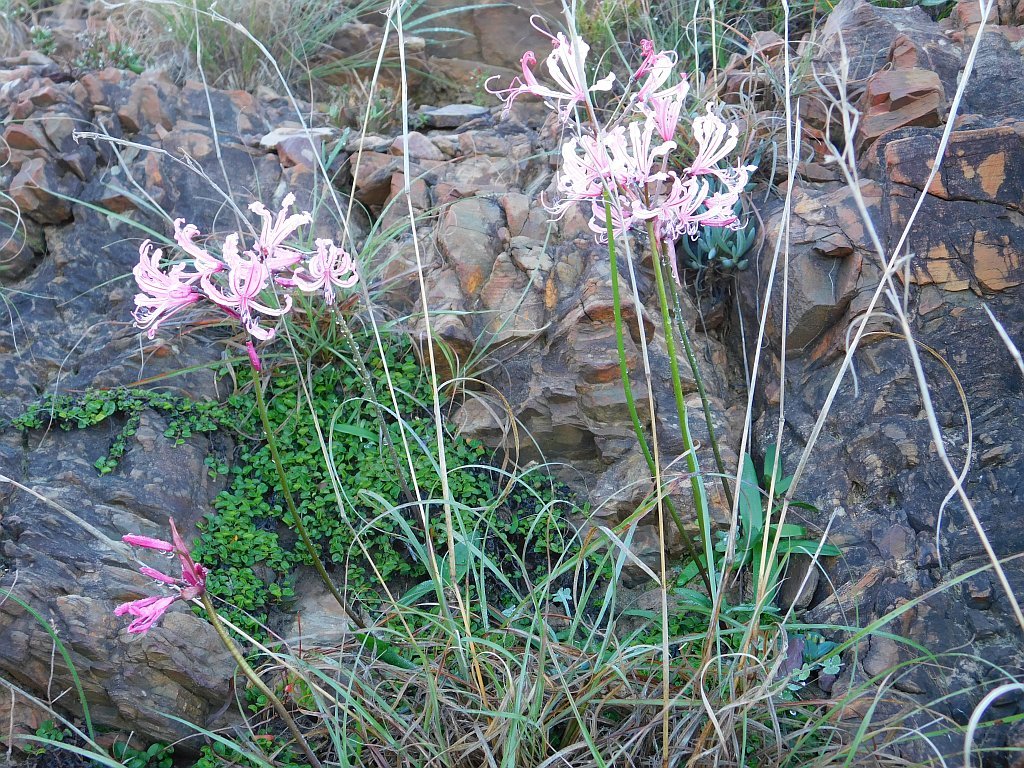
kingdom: Plantae
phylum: Tracheophyta
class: Liliopsida
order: Asparagales
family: Amaryllidaceae
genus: Nerine
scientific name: Nerine humilis
